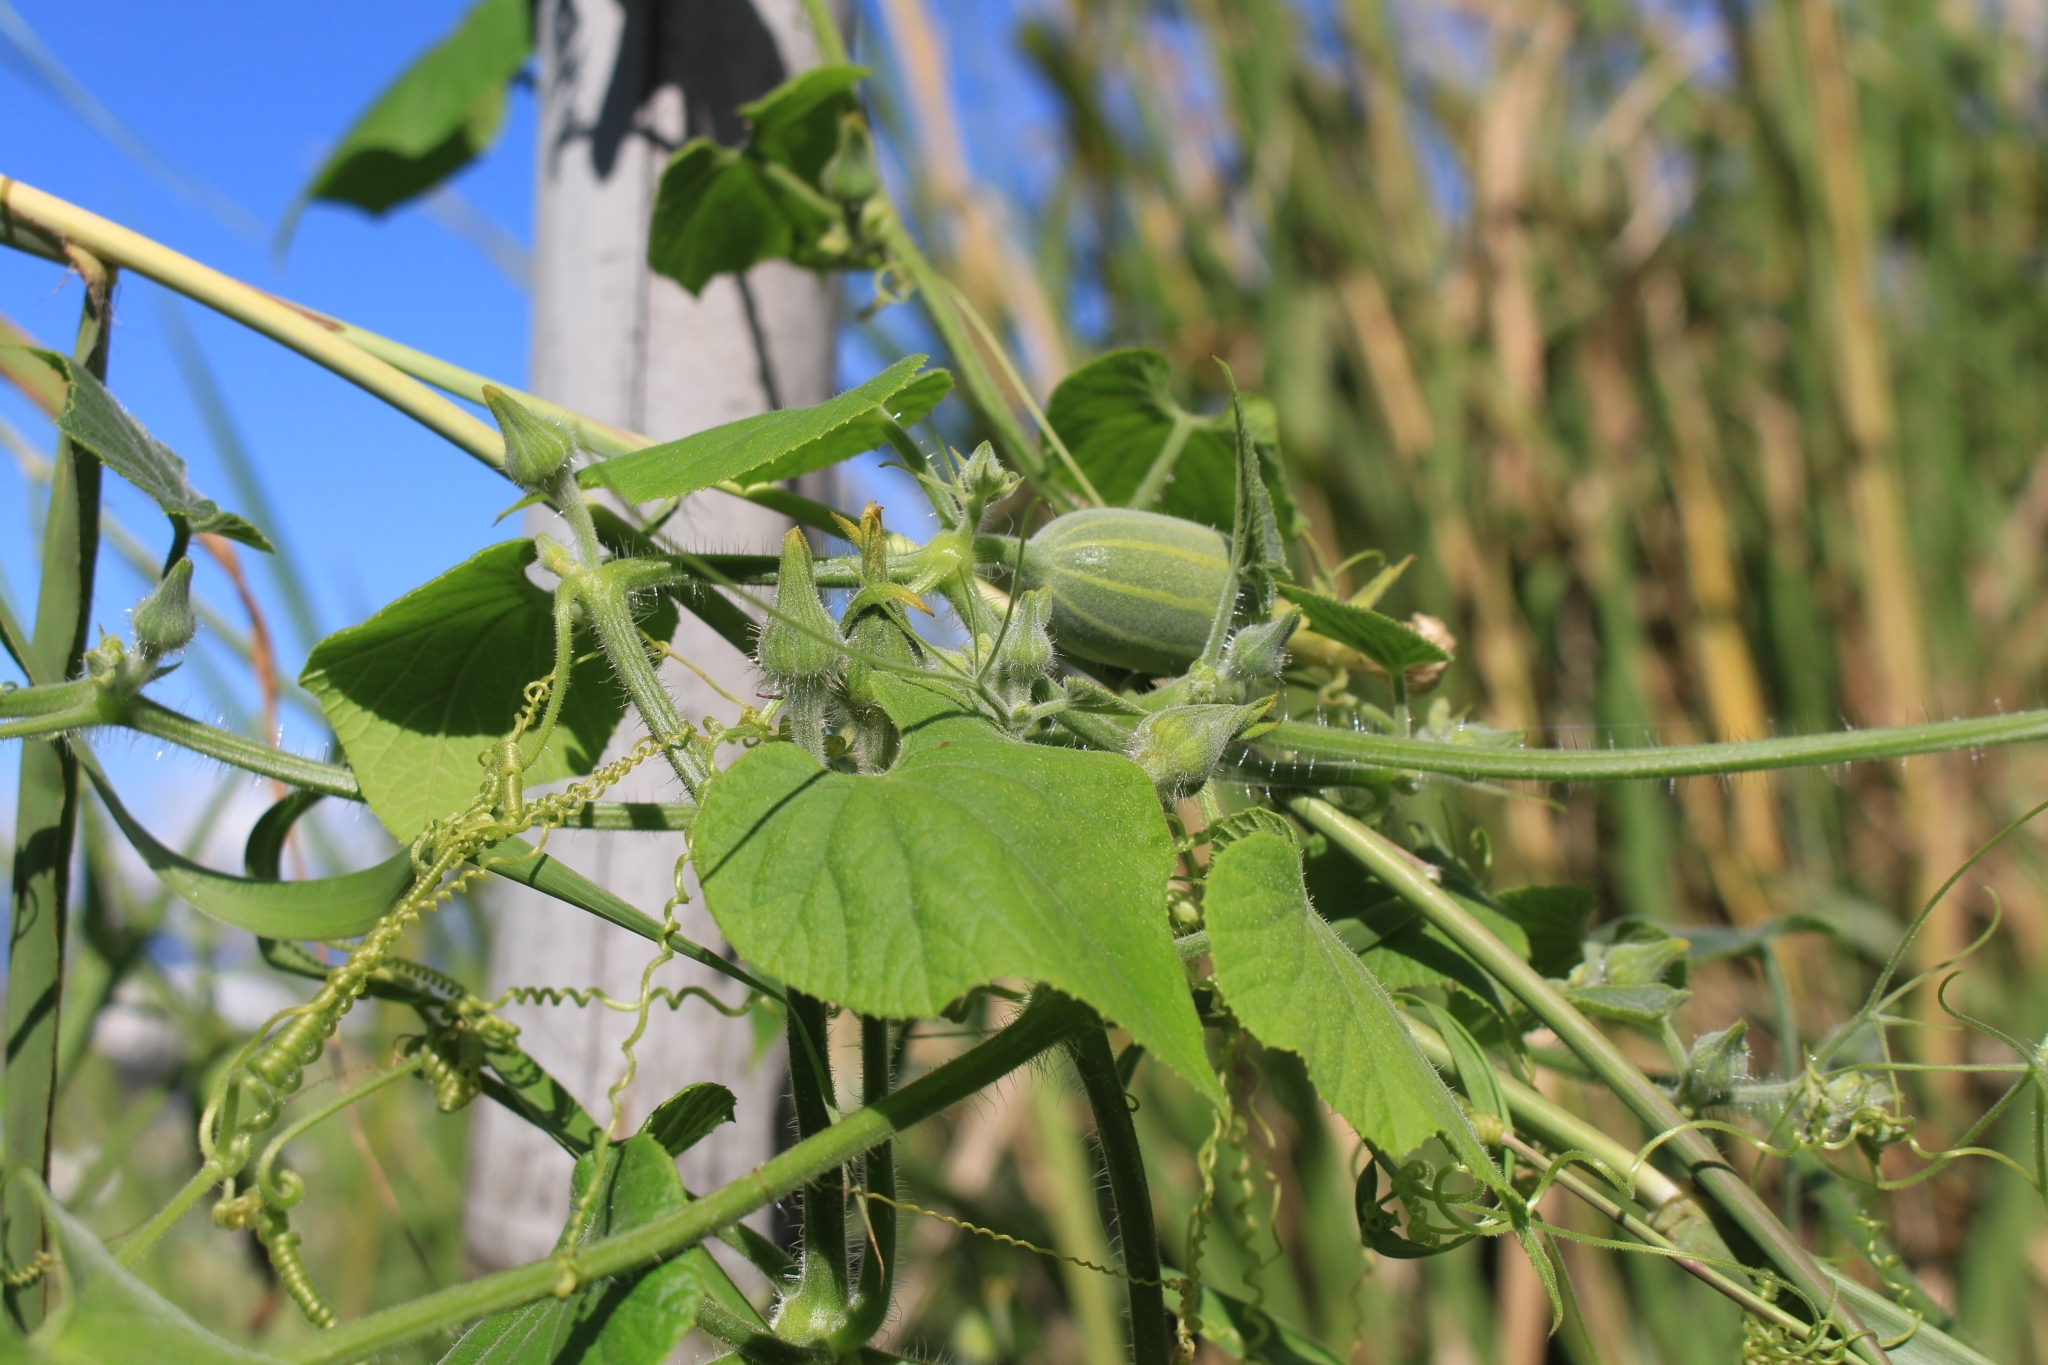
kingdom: Plantae
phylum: Tracheophyta
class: Magnoliopsida
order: Cucurbitales
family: Cucurbitaceae
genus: Polyclathra
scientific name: Polyclathra cucumerina
